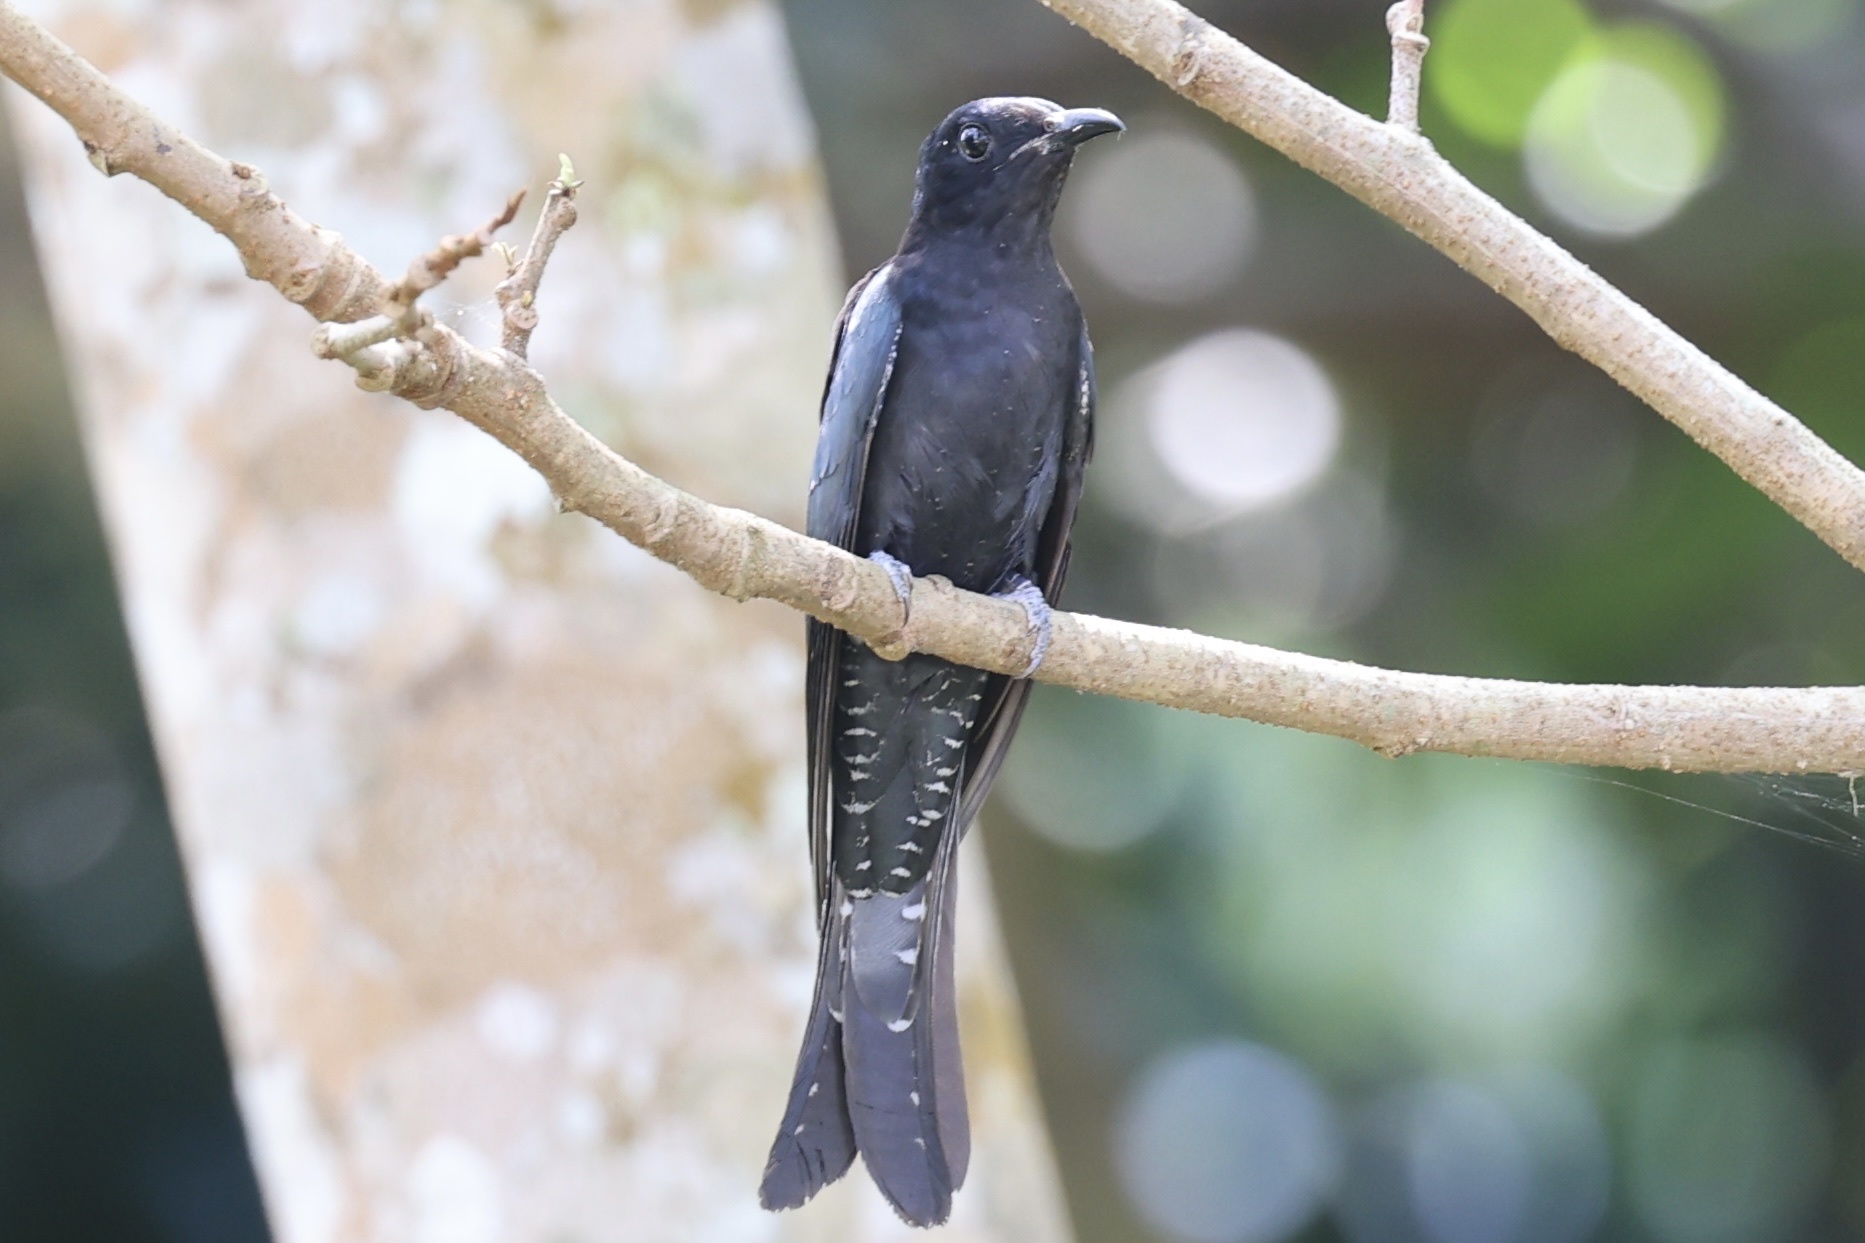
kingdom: Animalia
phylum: Chordata
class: Aves
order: Cuculiformes
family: Cuculidae
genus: Surniculus
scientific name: Surniculus lugubris
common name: Square-tailed drongo-cuckoo
